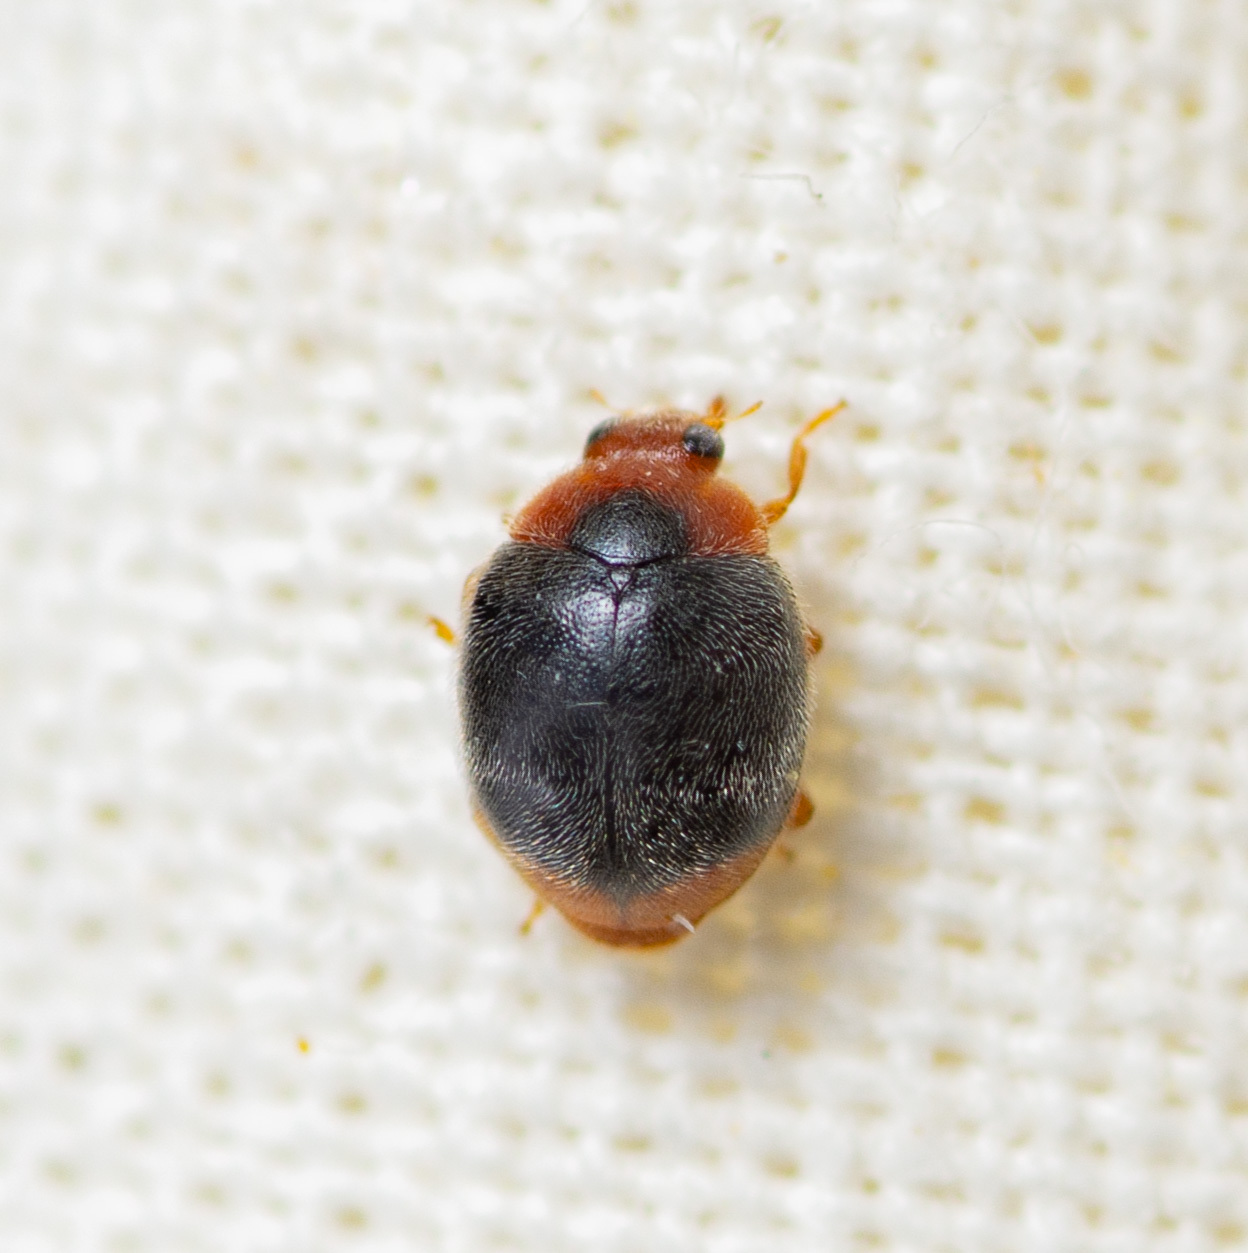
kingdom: Animalia
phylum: Arthropoda
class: Insecta
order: Coleoptera
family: Coccinellidae
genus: Scymnus
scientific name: Scymnus louisianae
